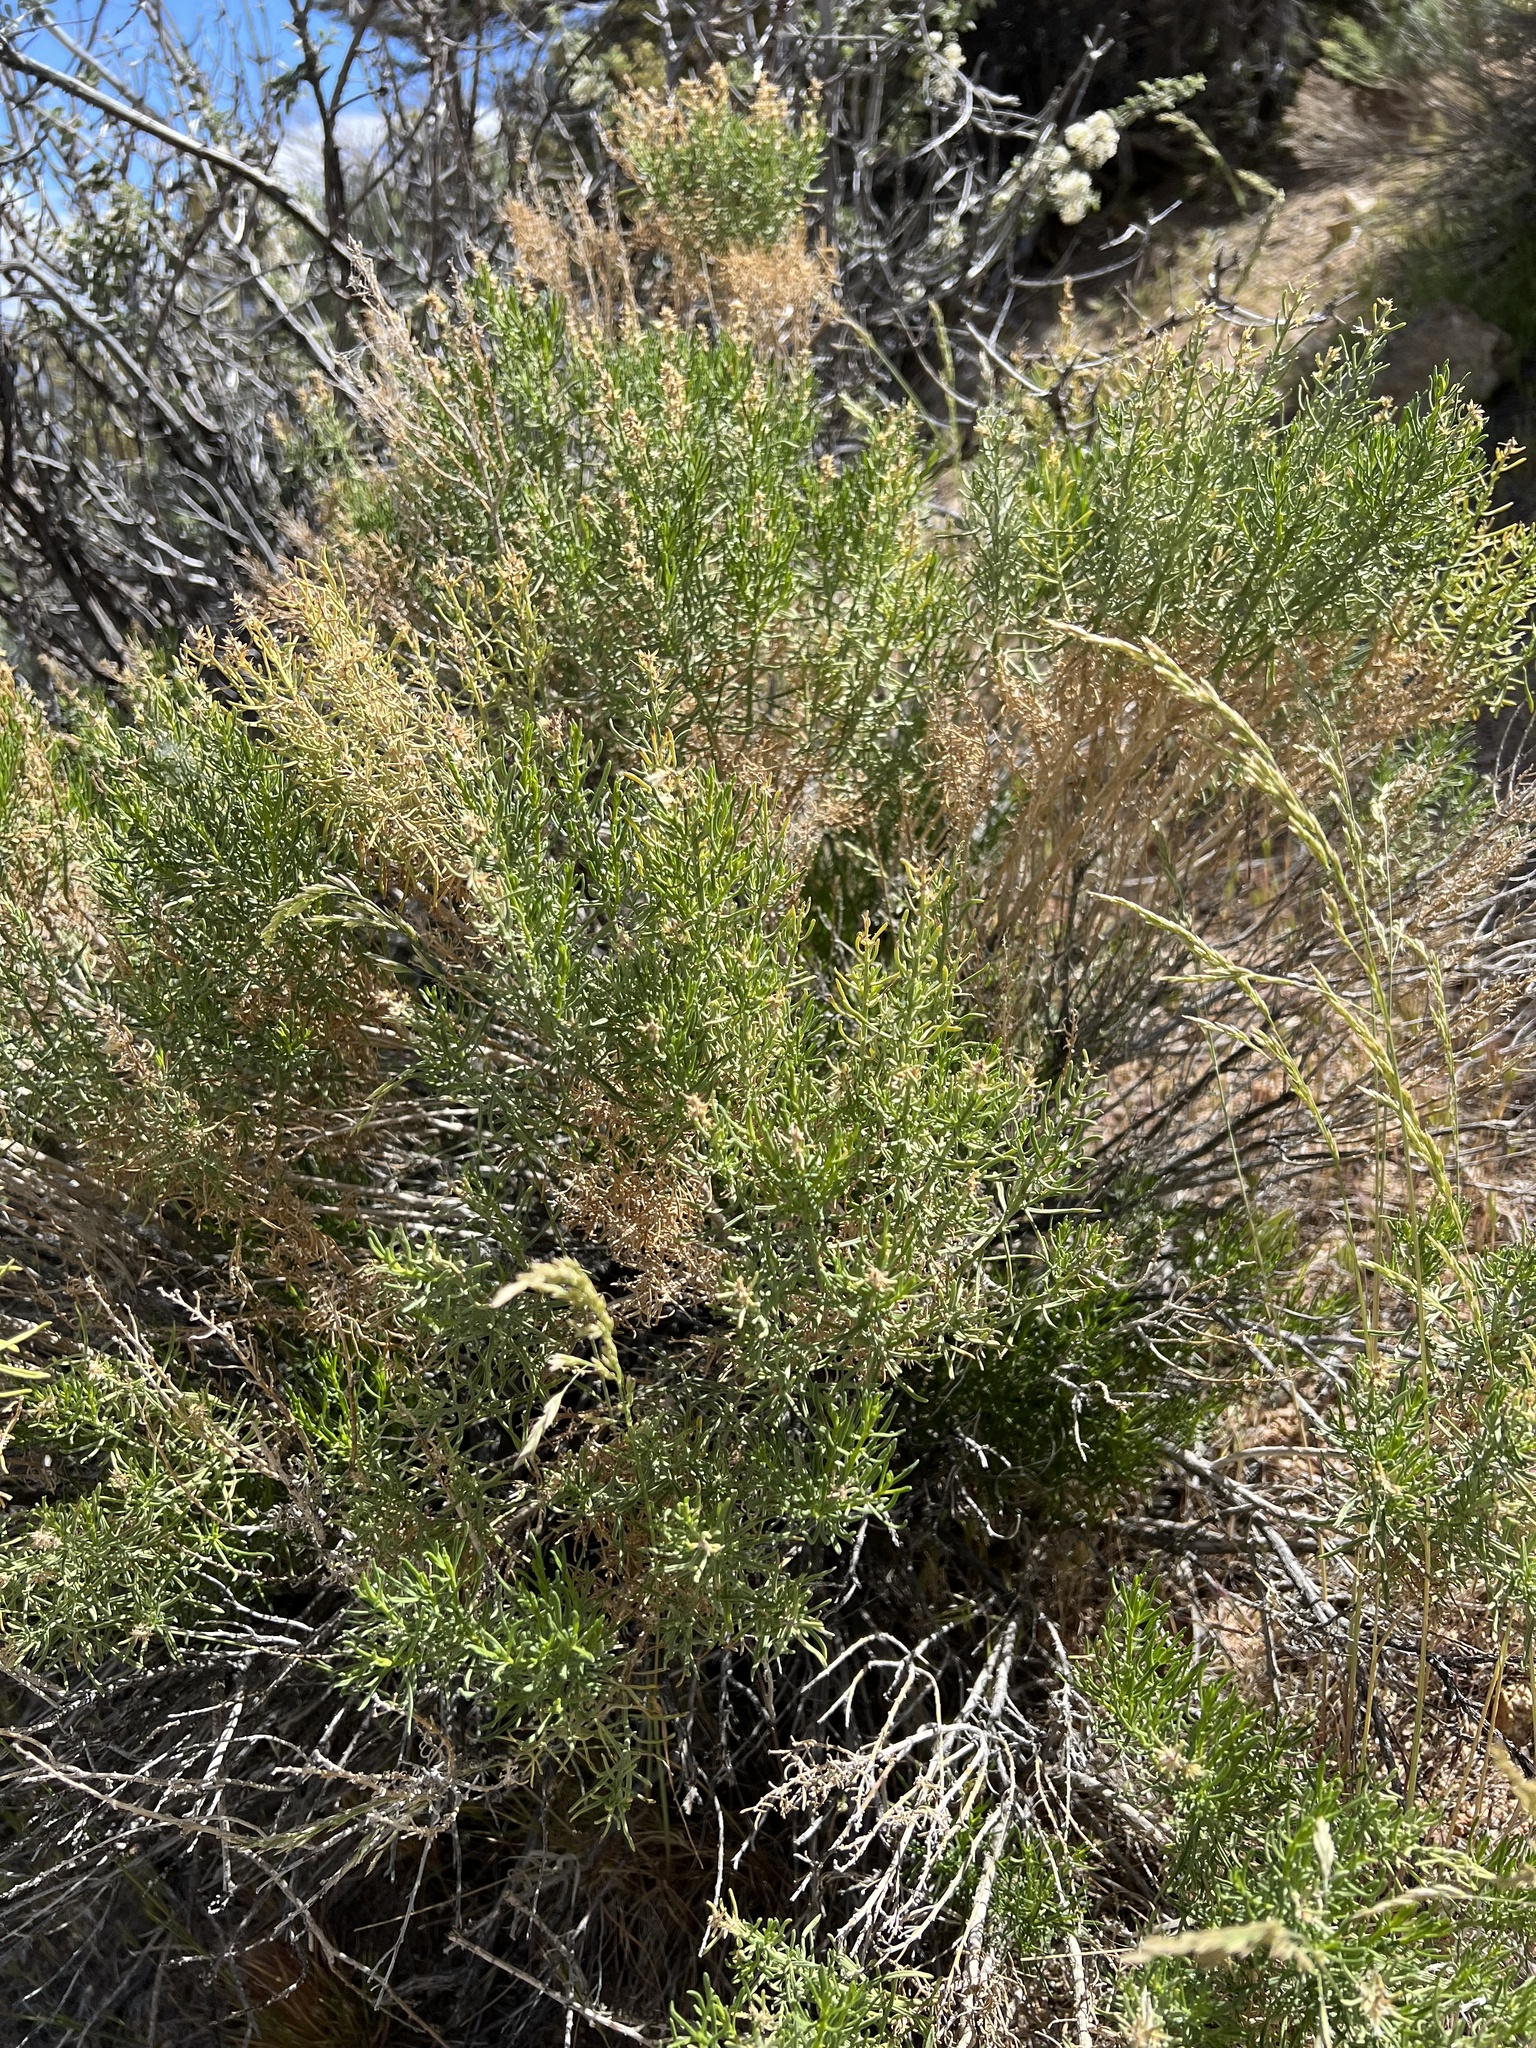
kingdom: Plantae
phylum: Tracheophyta
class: Magnoliopsida
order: Asterales
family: Asteraceae
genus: Ericameria
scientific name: Ericameria teretifolia
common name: Round-leaf rabbitbrush
